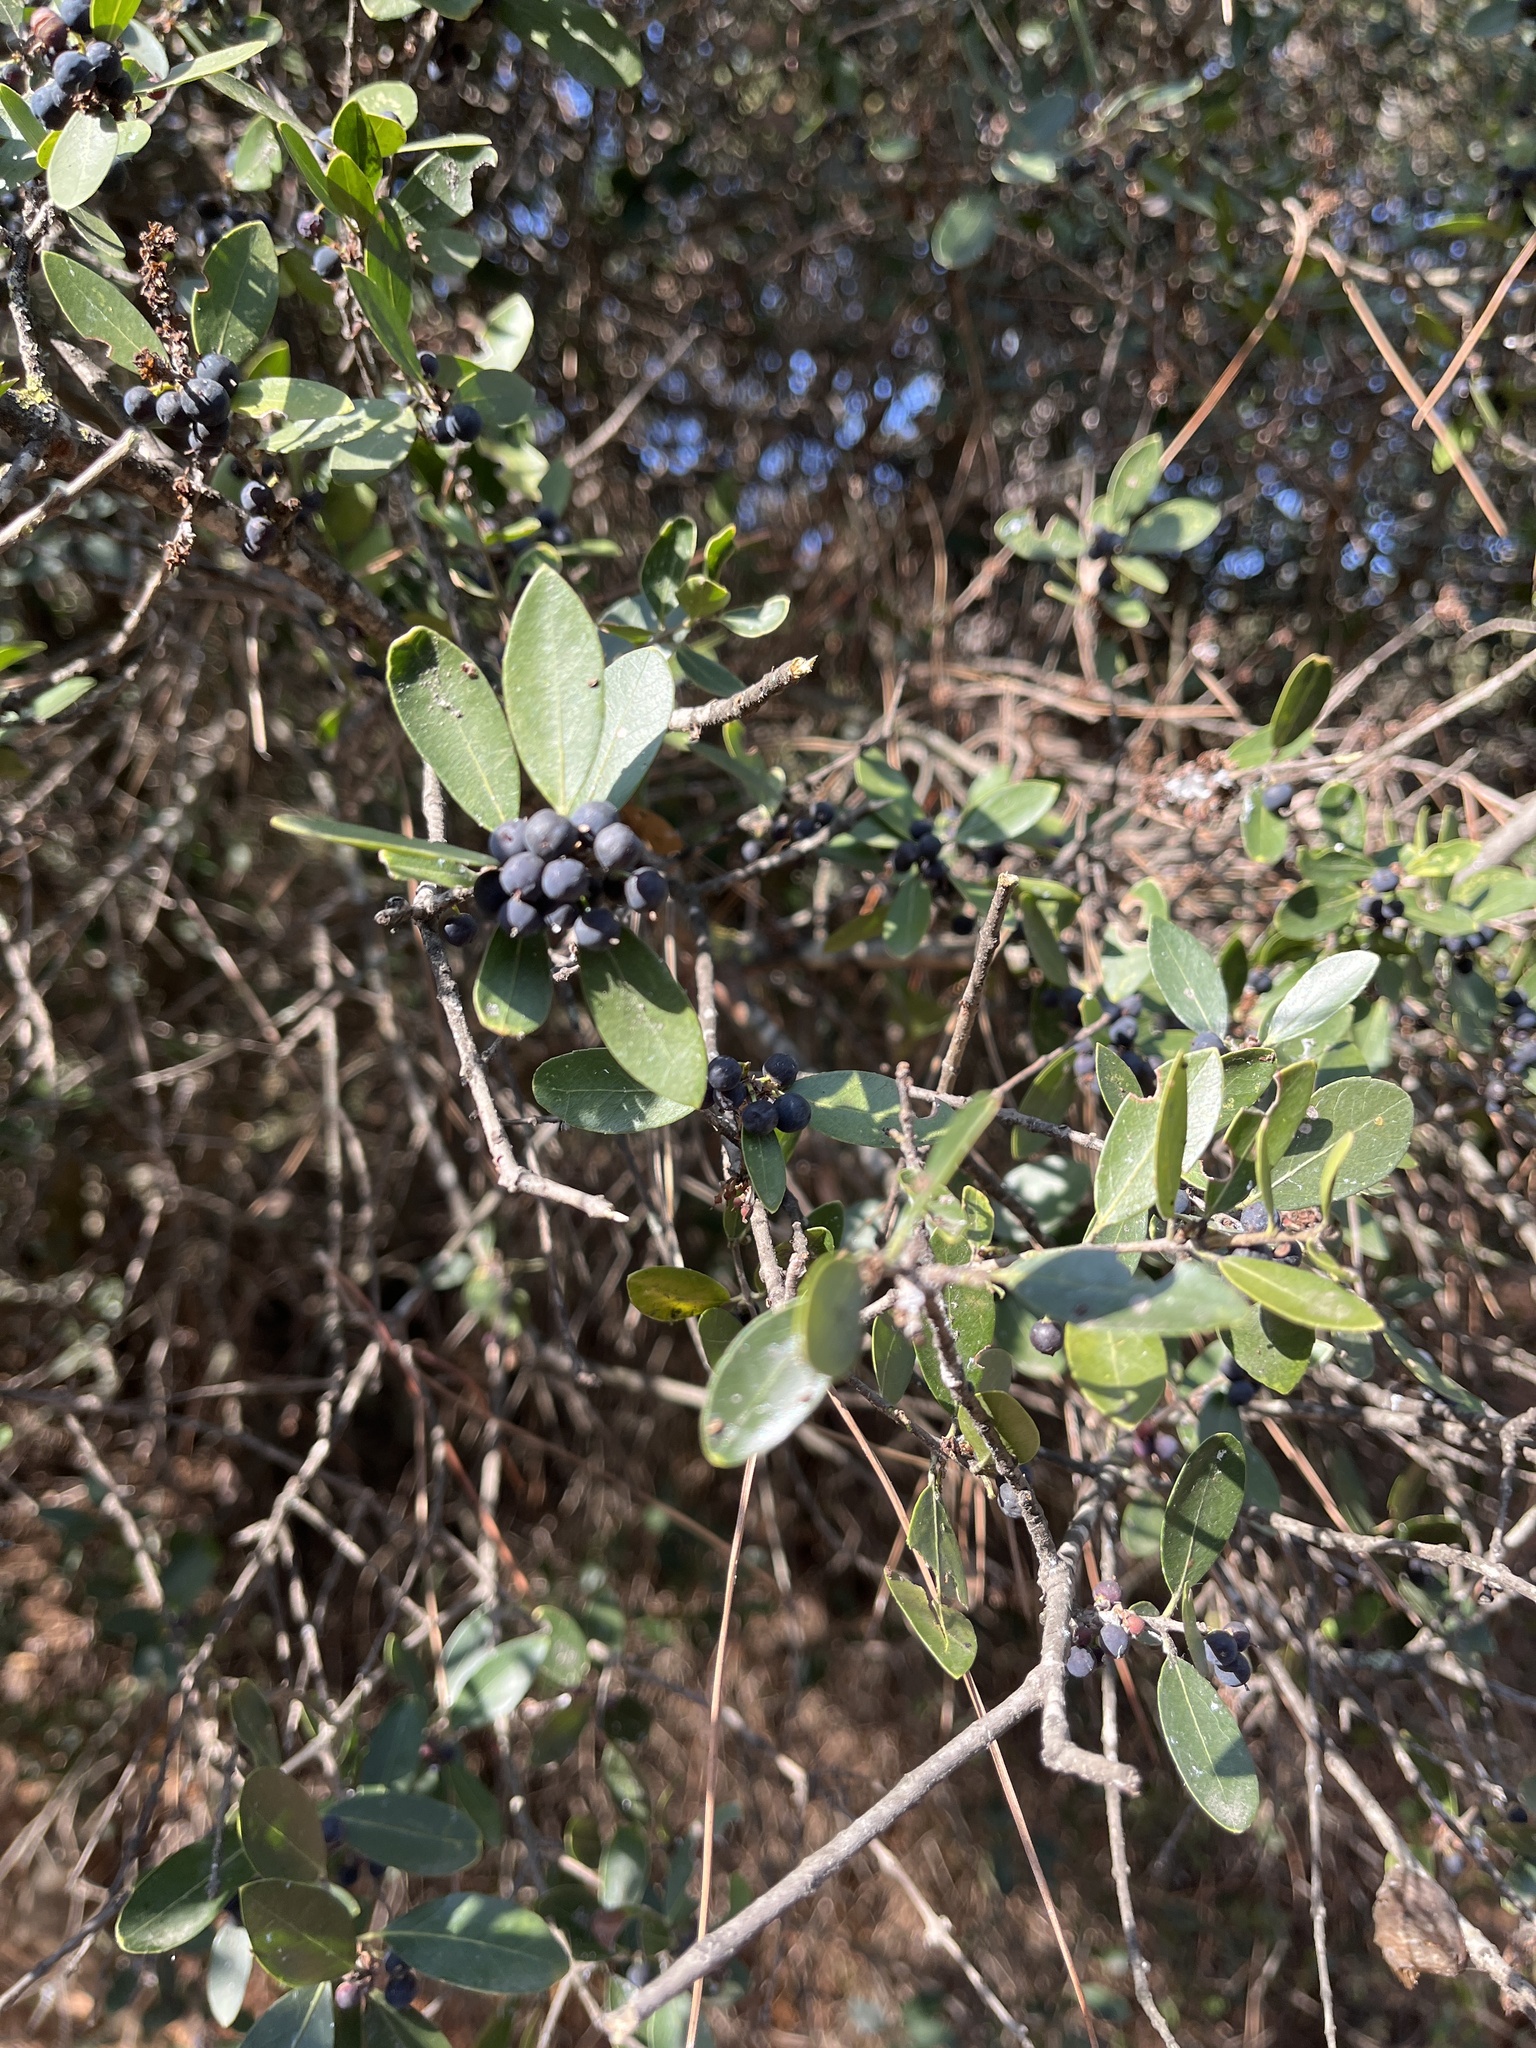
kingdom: Plantae
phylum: Tracheophyta
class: Magnoliopsida
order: Lamiales
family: Oleaceae
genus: Phillyrea
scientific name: Phillyrea latifolia
